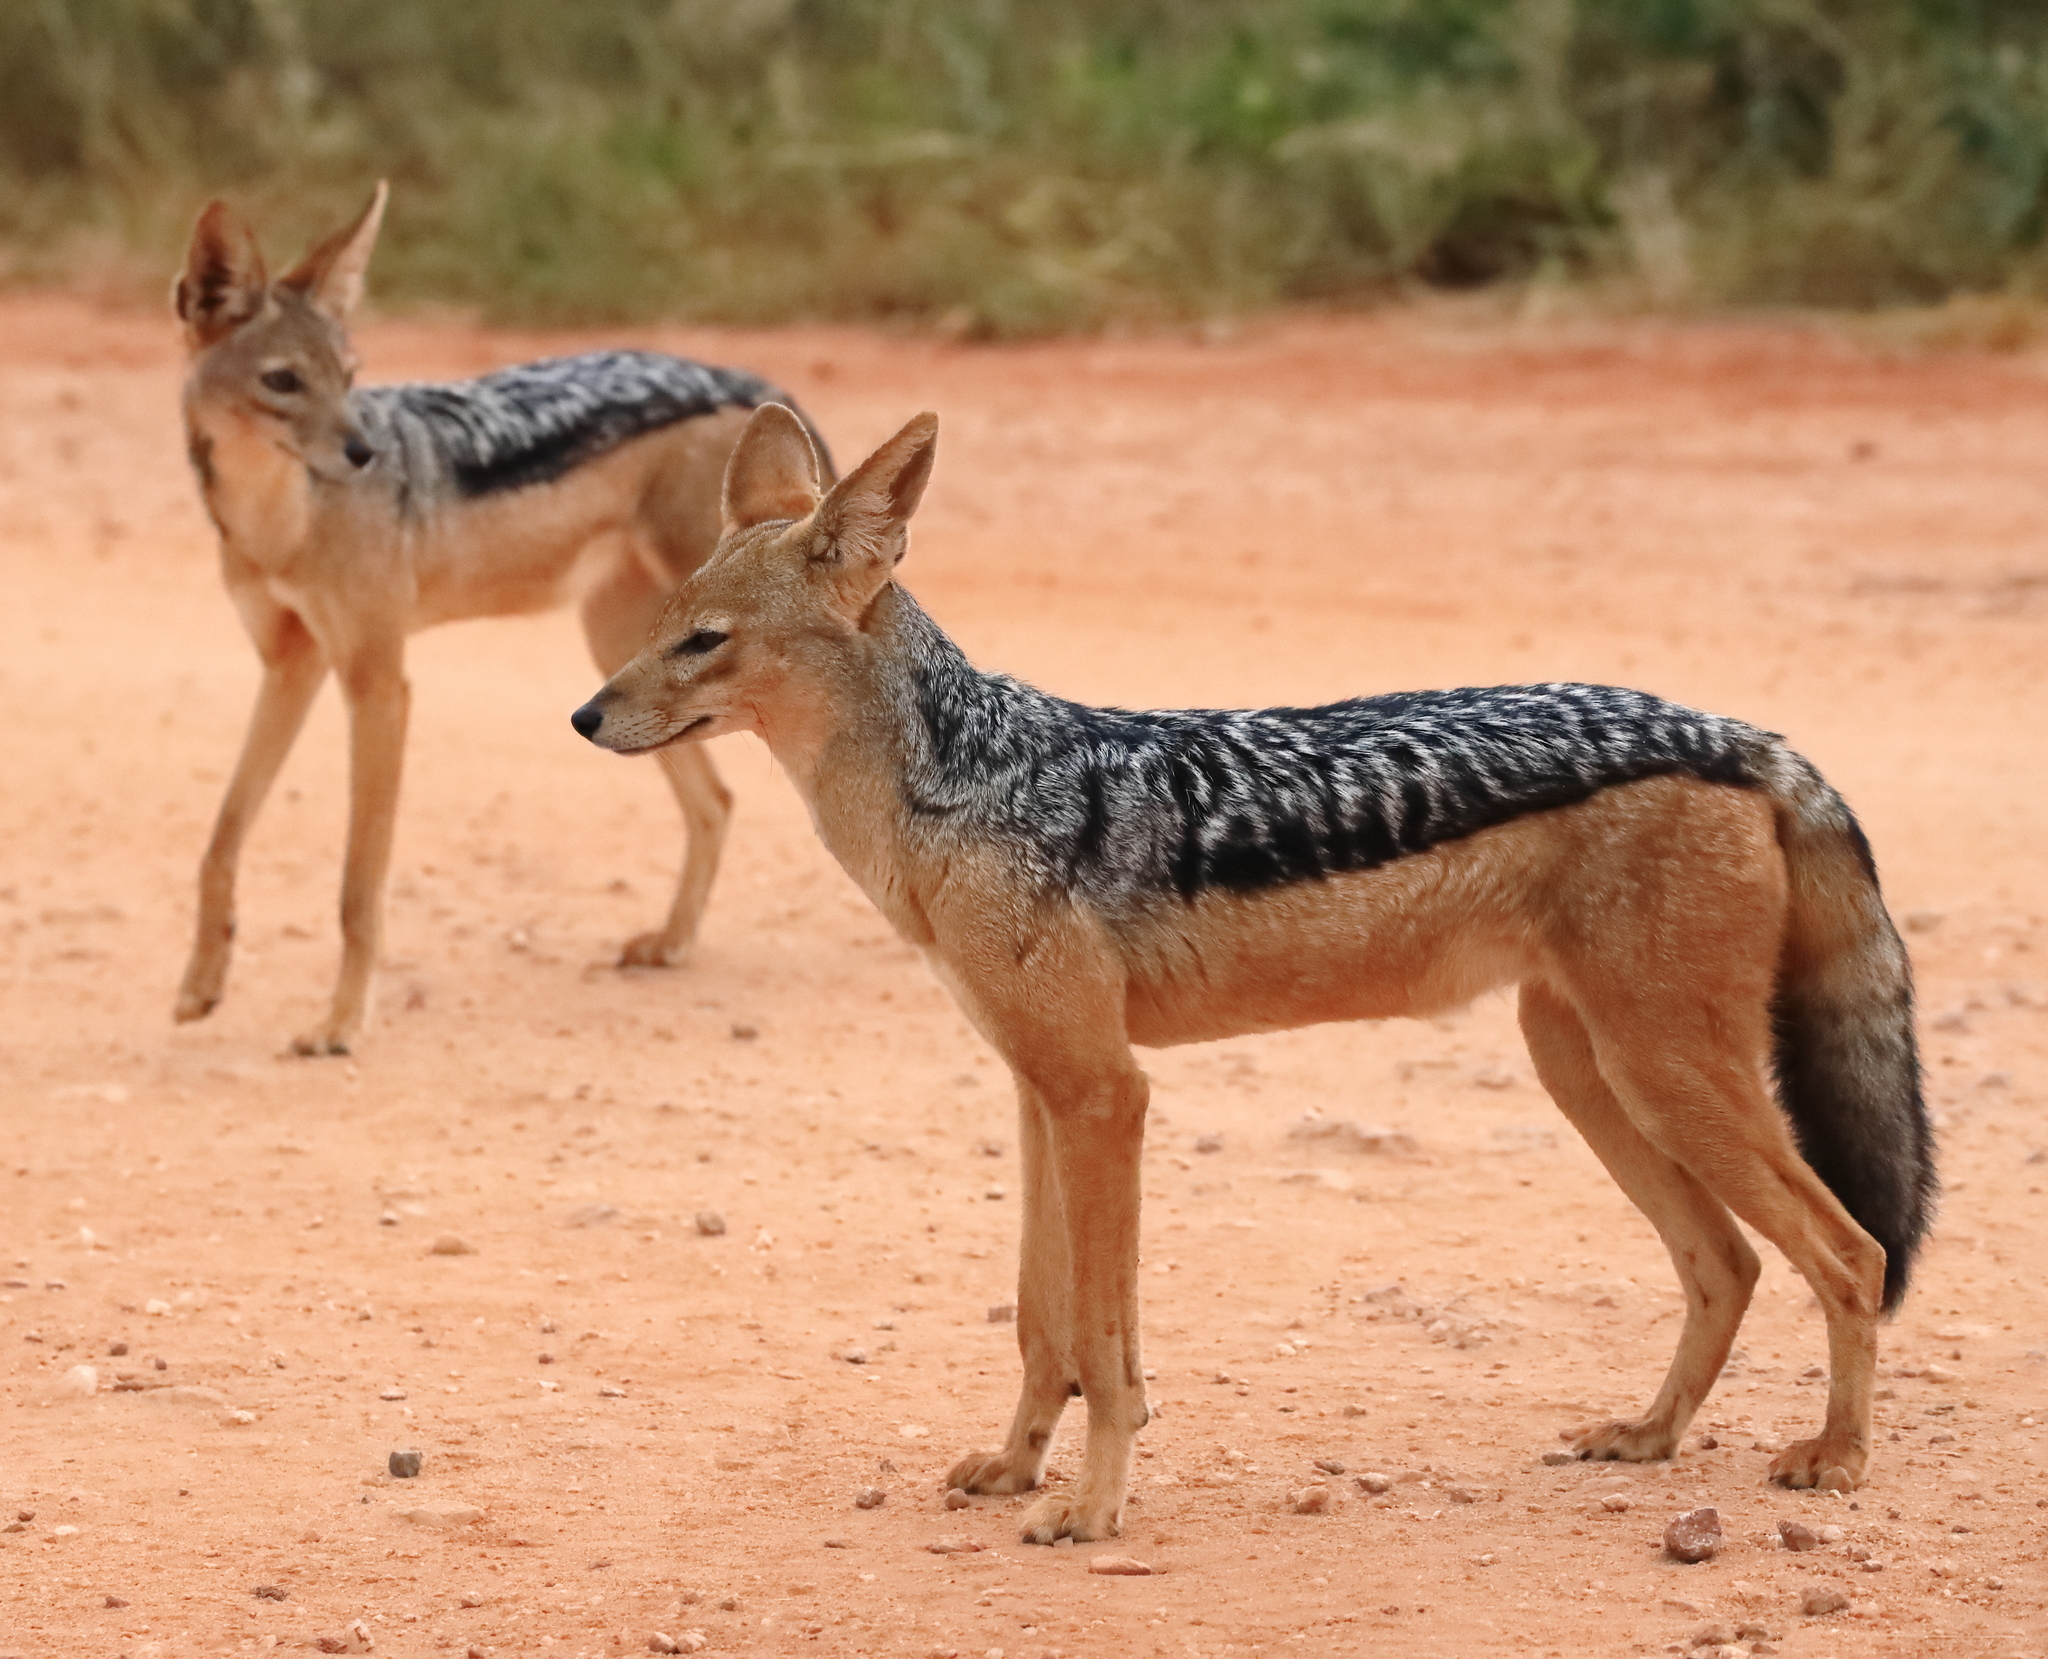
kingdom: Animalia
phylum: Chordata
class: Mammalia
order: Carnivora
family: Canidae
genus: Lupulella
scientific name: Lupulella
